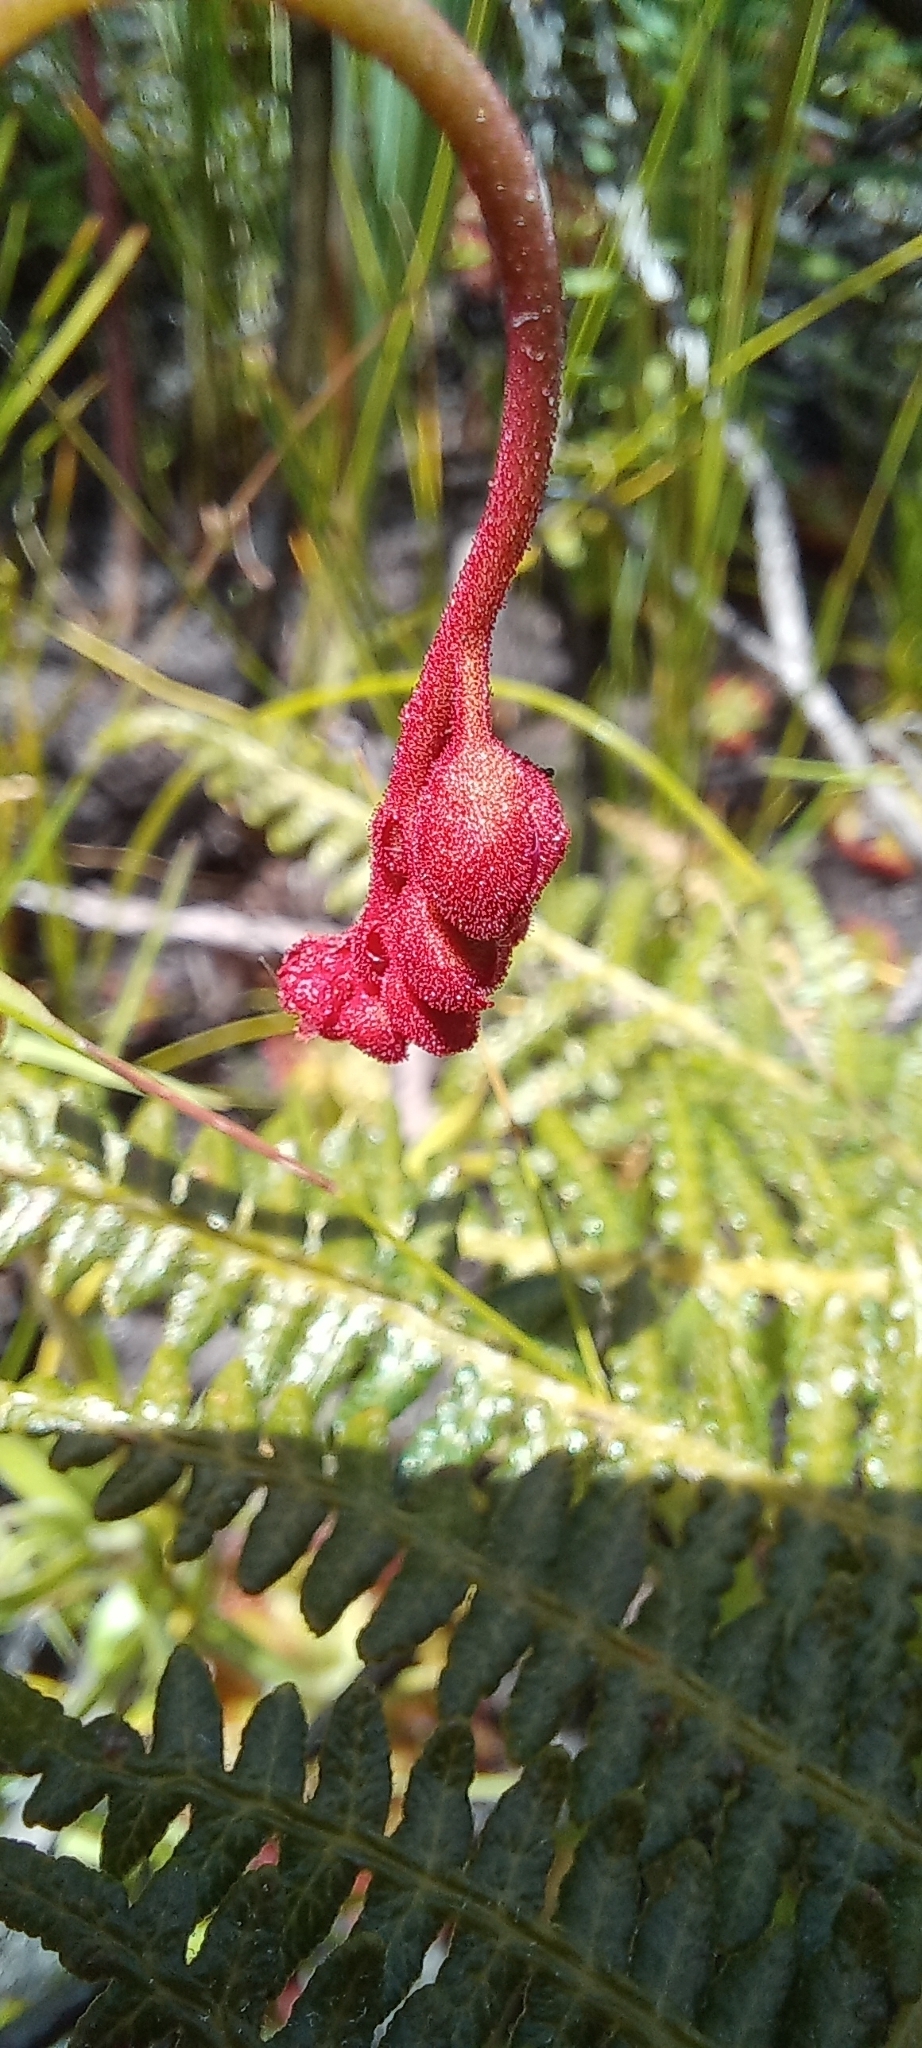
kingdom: Plantae
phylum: Tracheophyta
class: Magnoliopsida
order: Caryophyllales
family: Droseraceae
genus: Drosera
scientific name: Drosera aliciae
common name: Alice sundew
